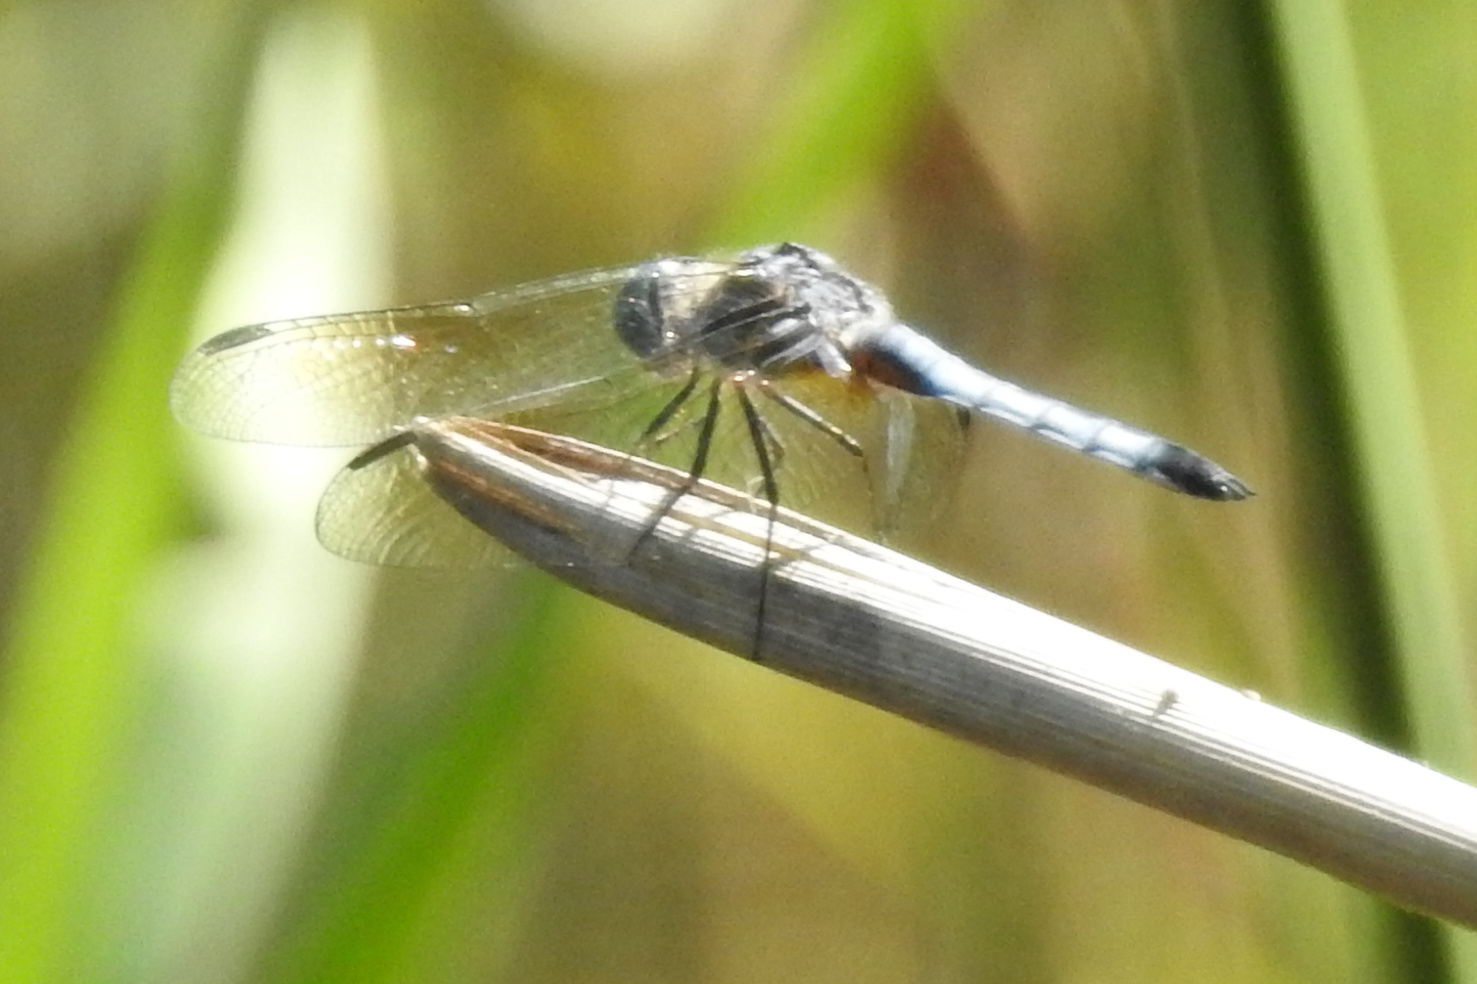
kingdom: Animalia
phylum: Arthropoda
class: Insecta
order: Odonata
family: Libellulidae
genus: Pachydiplax
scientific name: Pachydiplax longipennis
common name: Blue dasher
